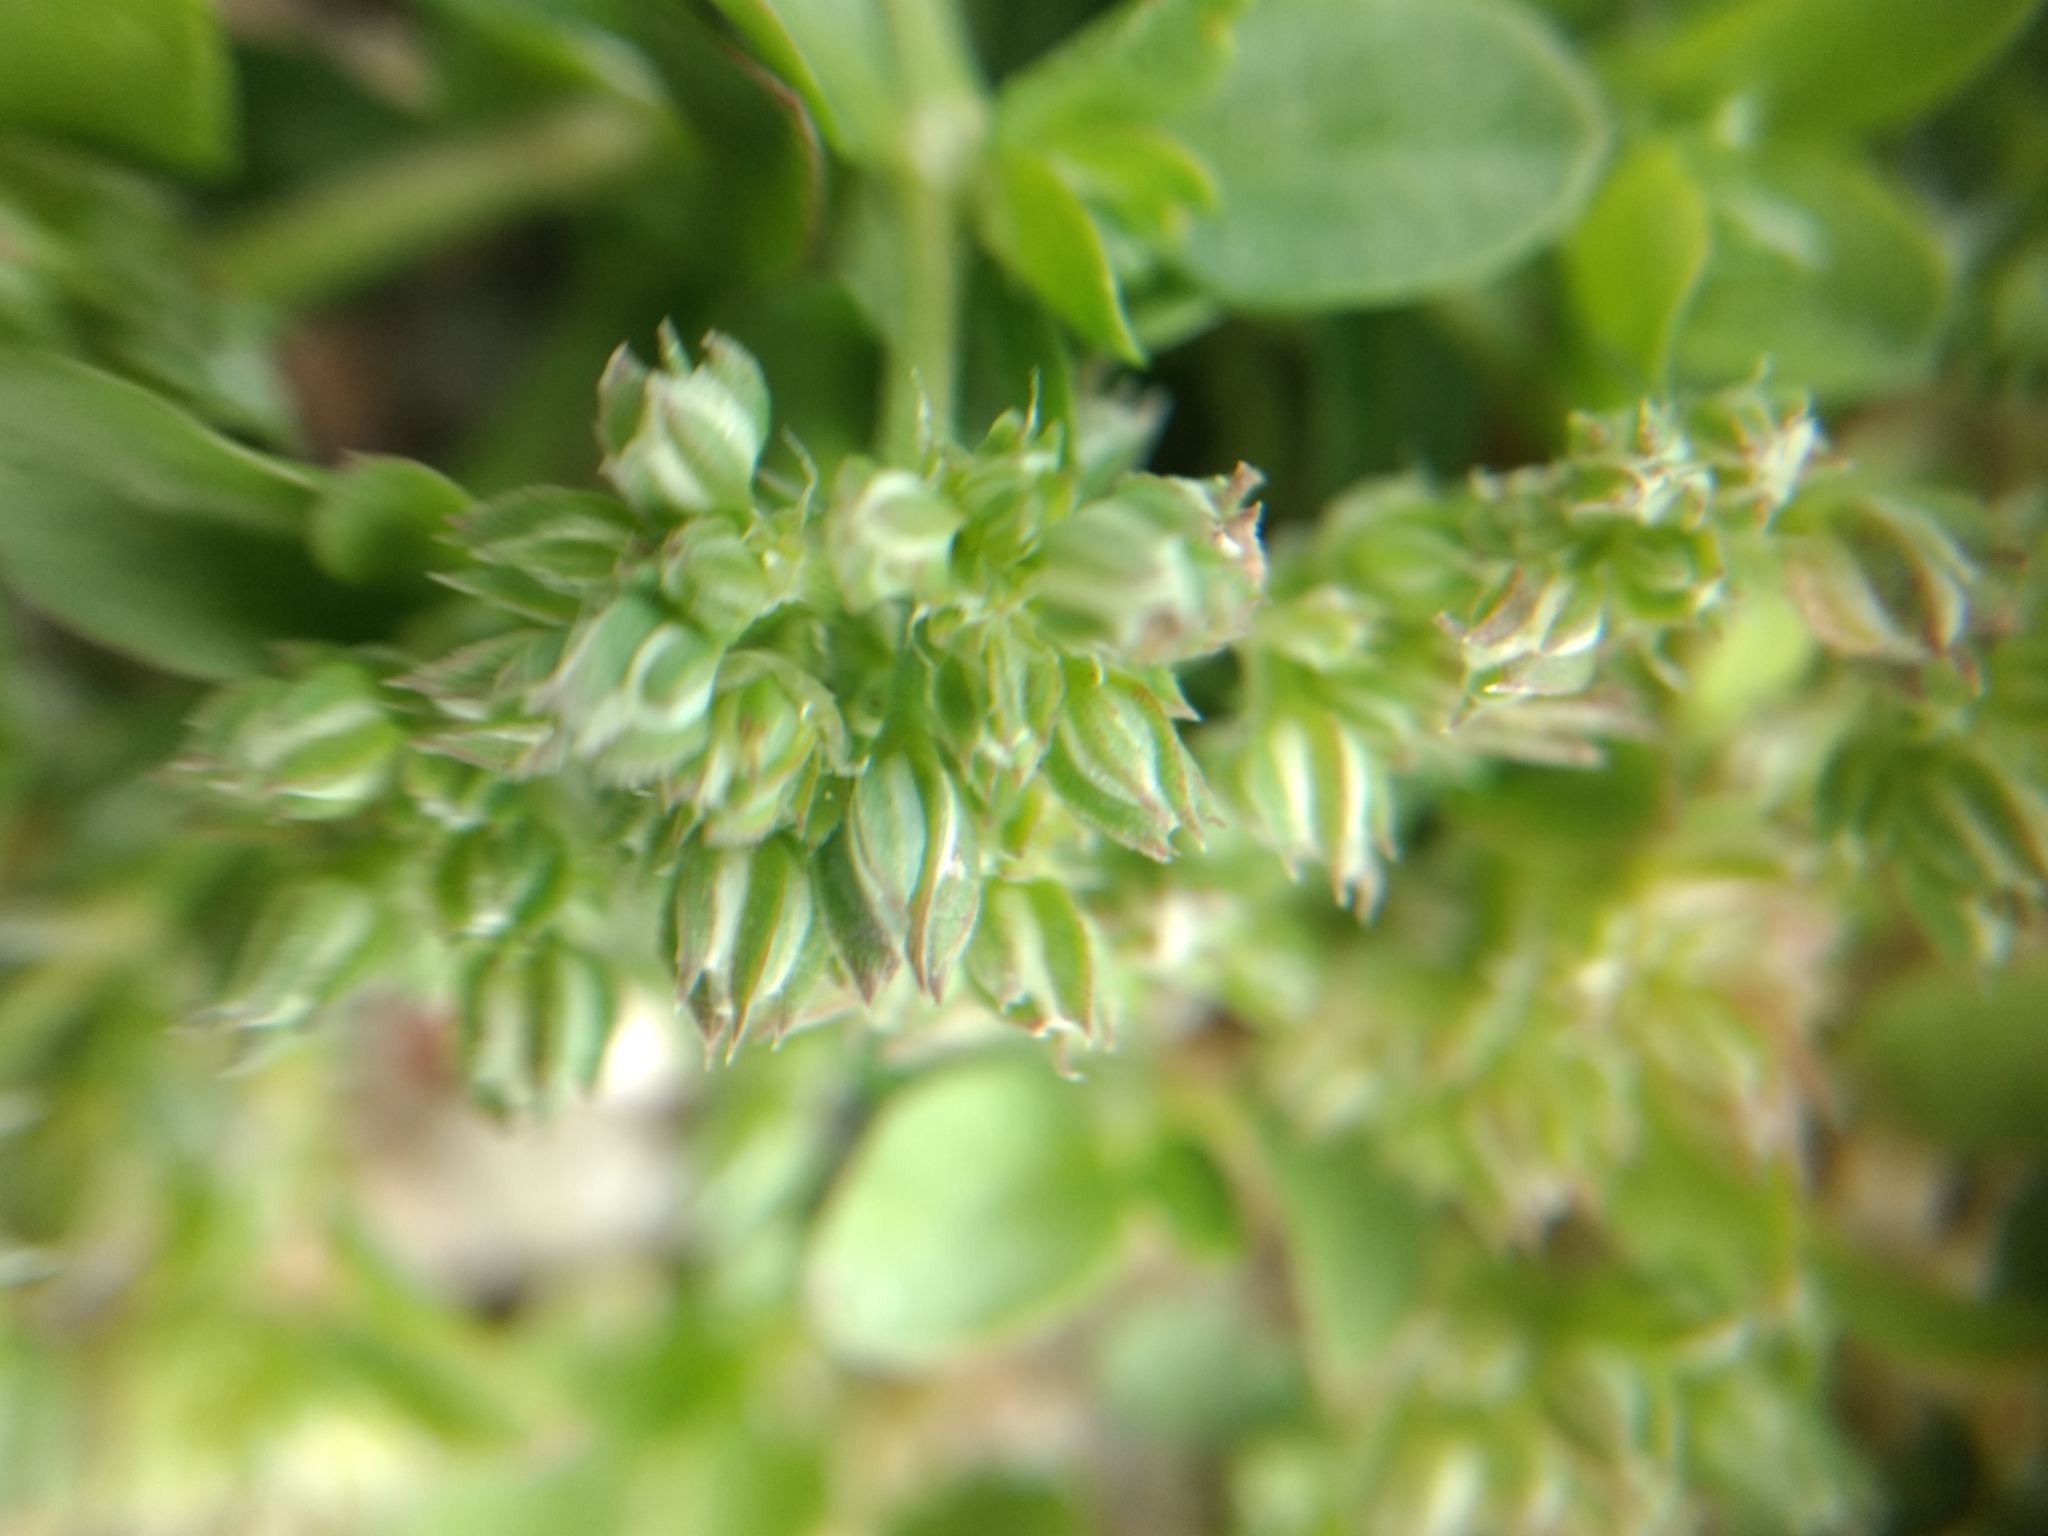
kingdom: Plantae
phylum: Tracheophyta
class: Magnoliopsida
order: Caryophyllales
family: Caryophyllaceae
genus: Polycarpon
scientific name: Polycarpon tetraphyllum
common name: Four-leaved all-seed
